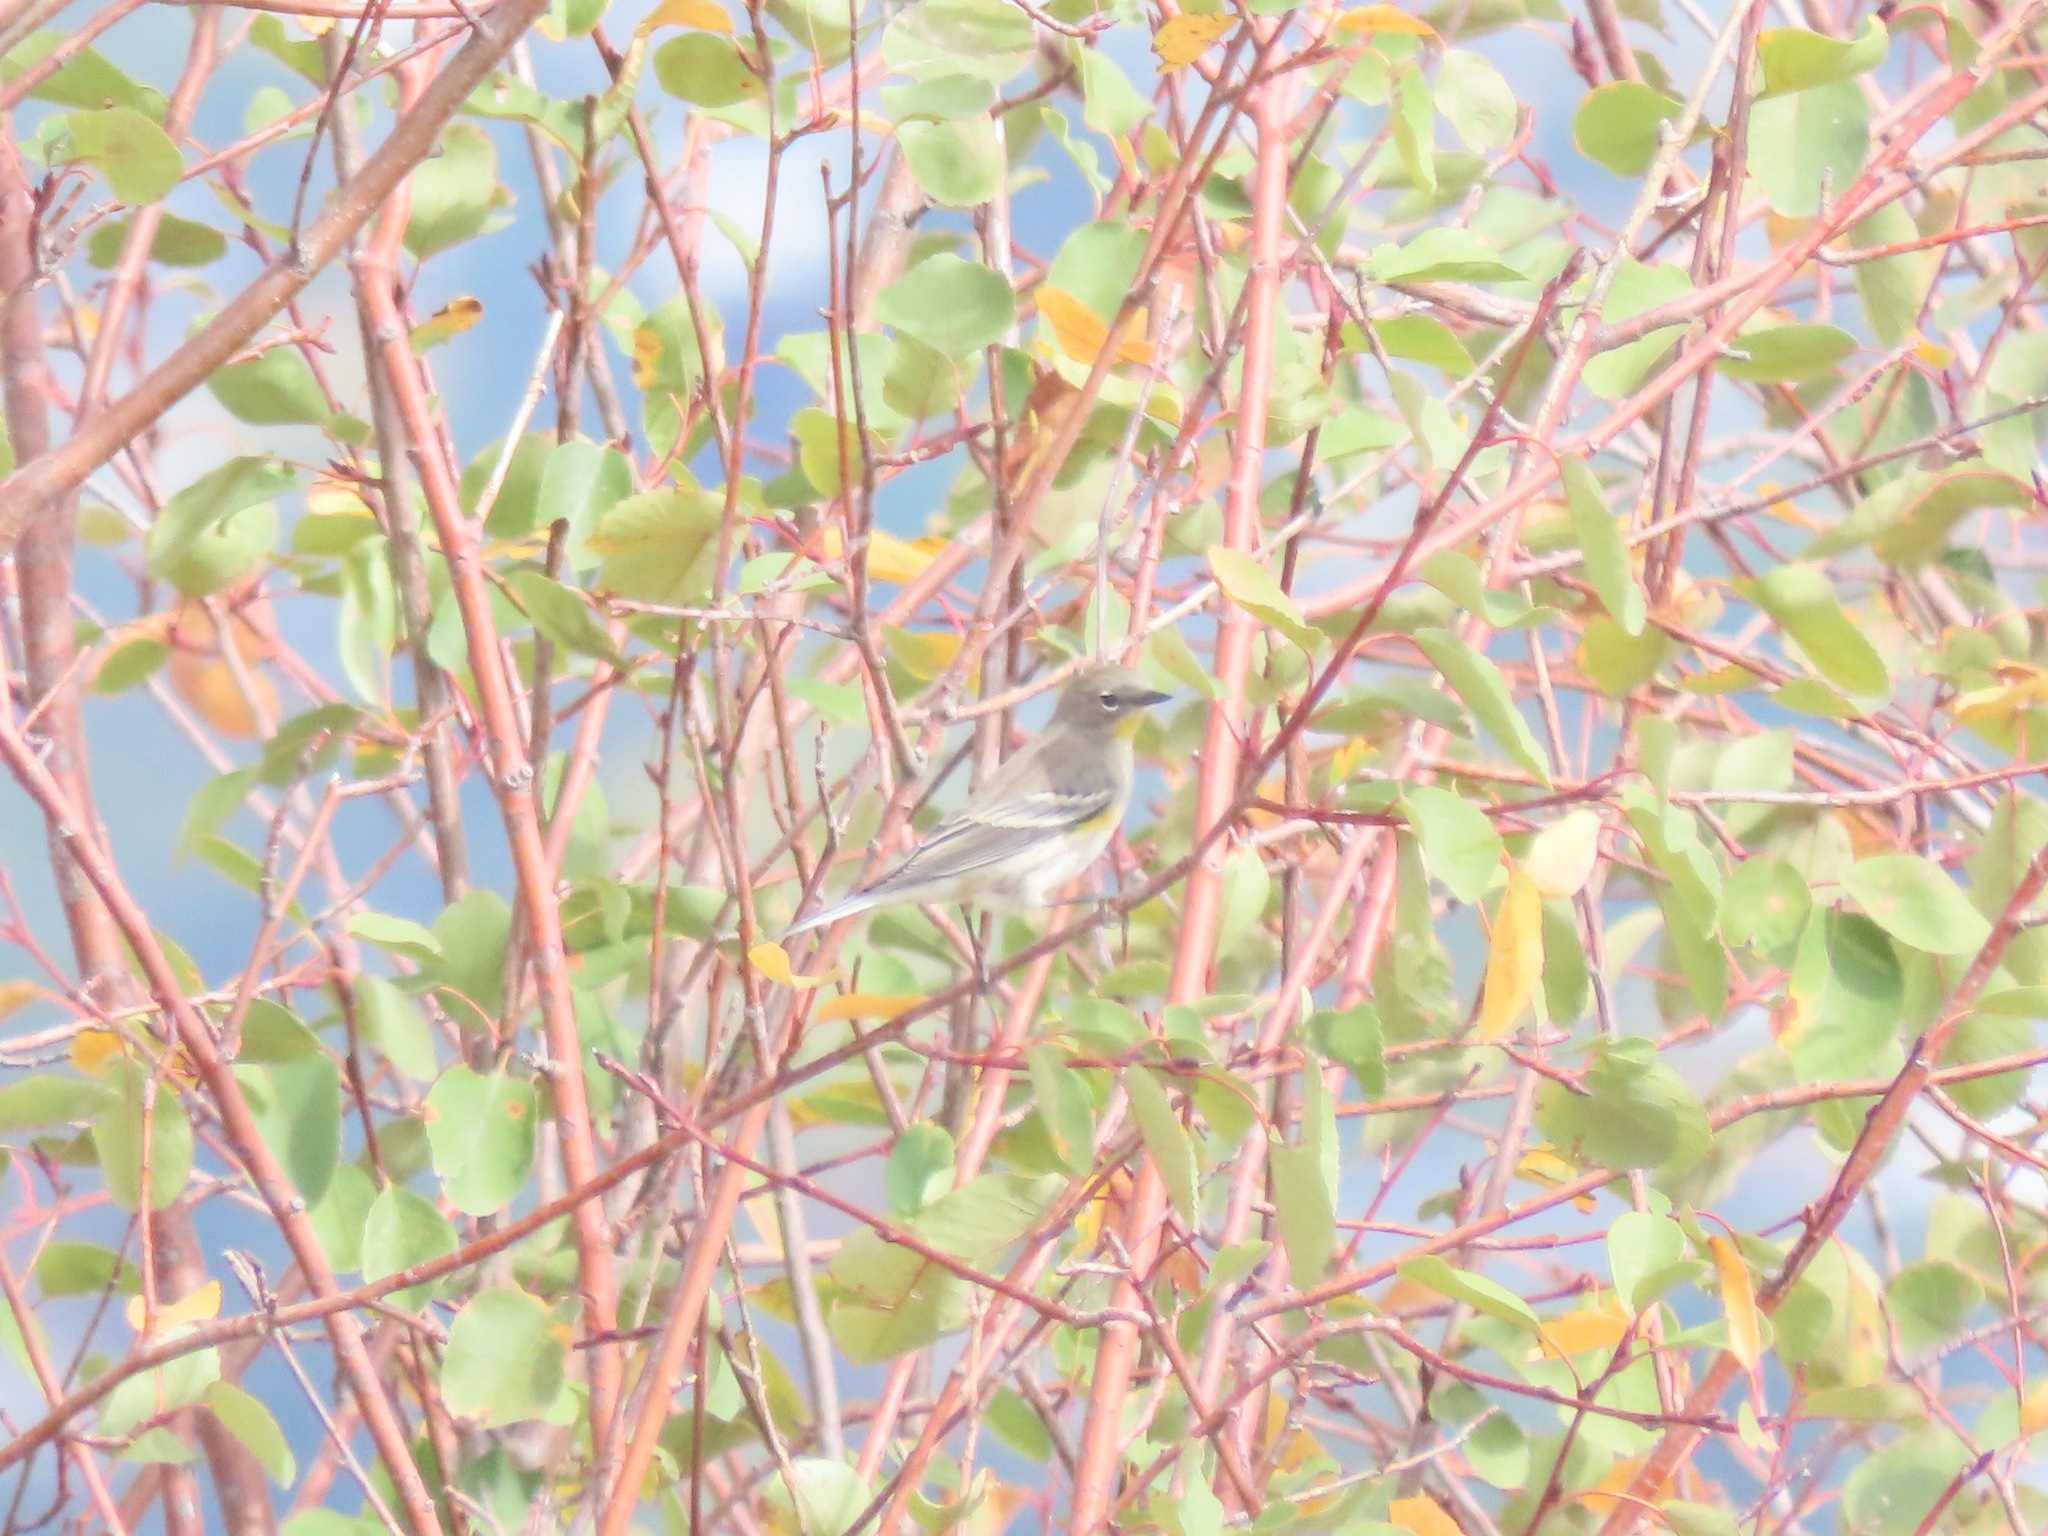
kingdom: Animalia
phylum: Chordata
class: Aves
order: Passeriformes
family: Parulidae
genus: Setophaga
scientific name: Setophaga coronata
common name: Myrtle warbler
